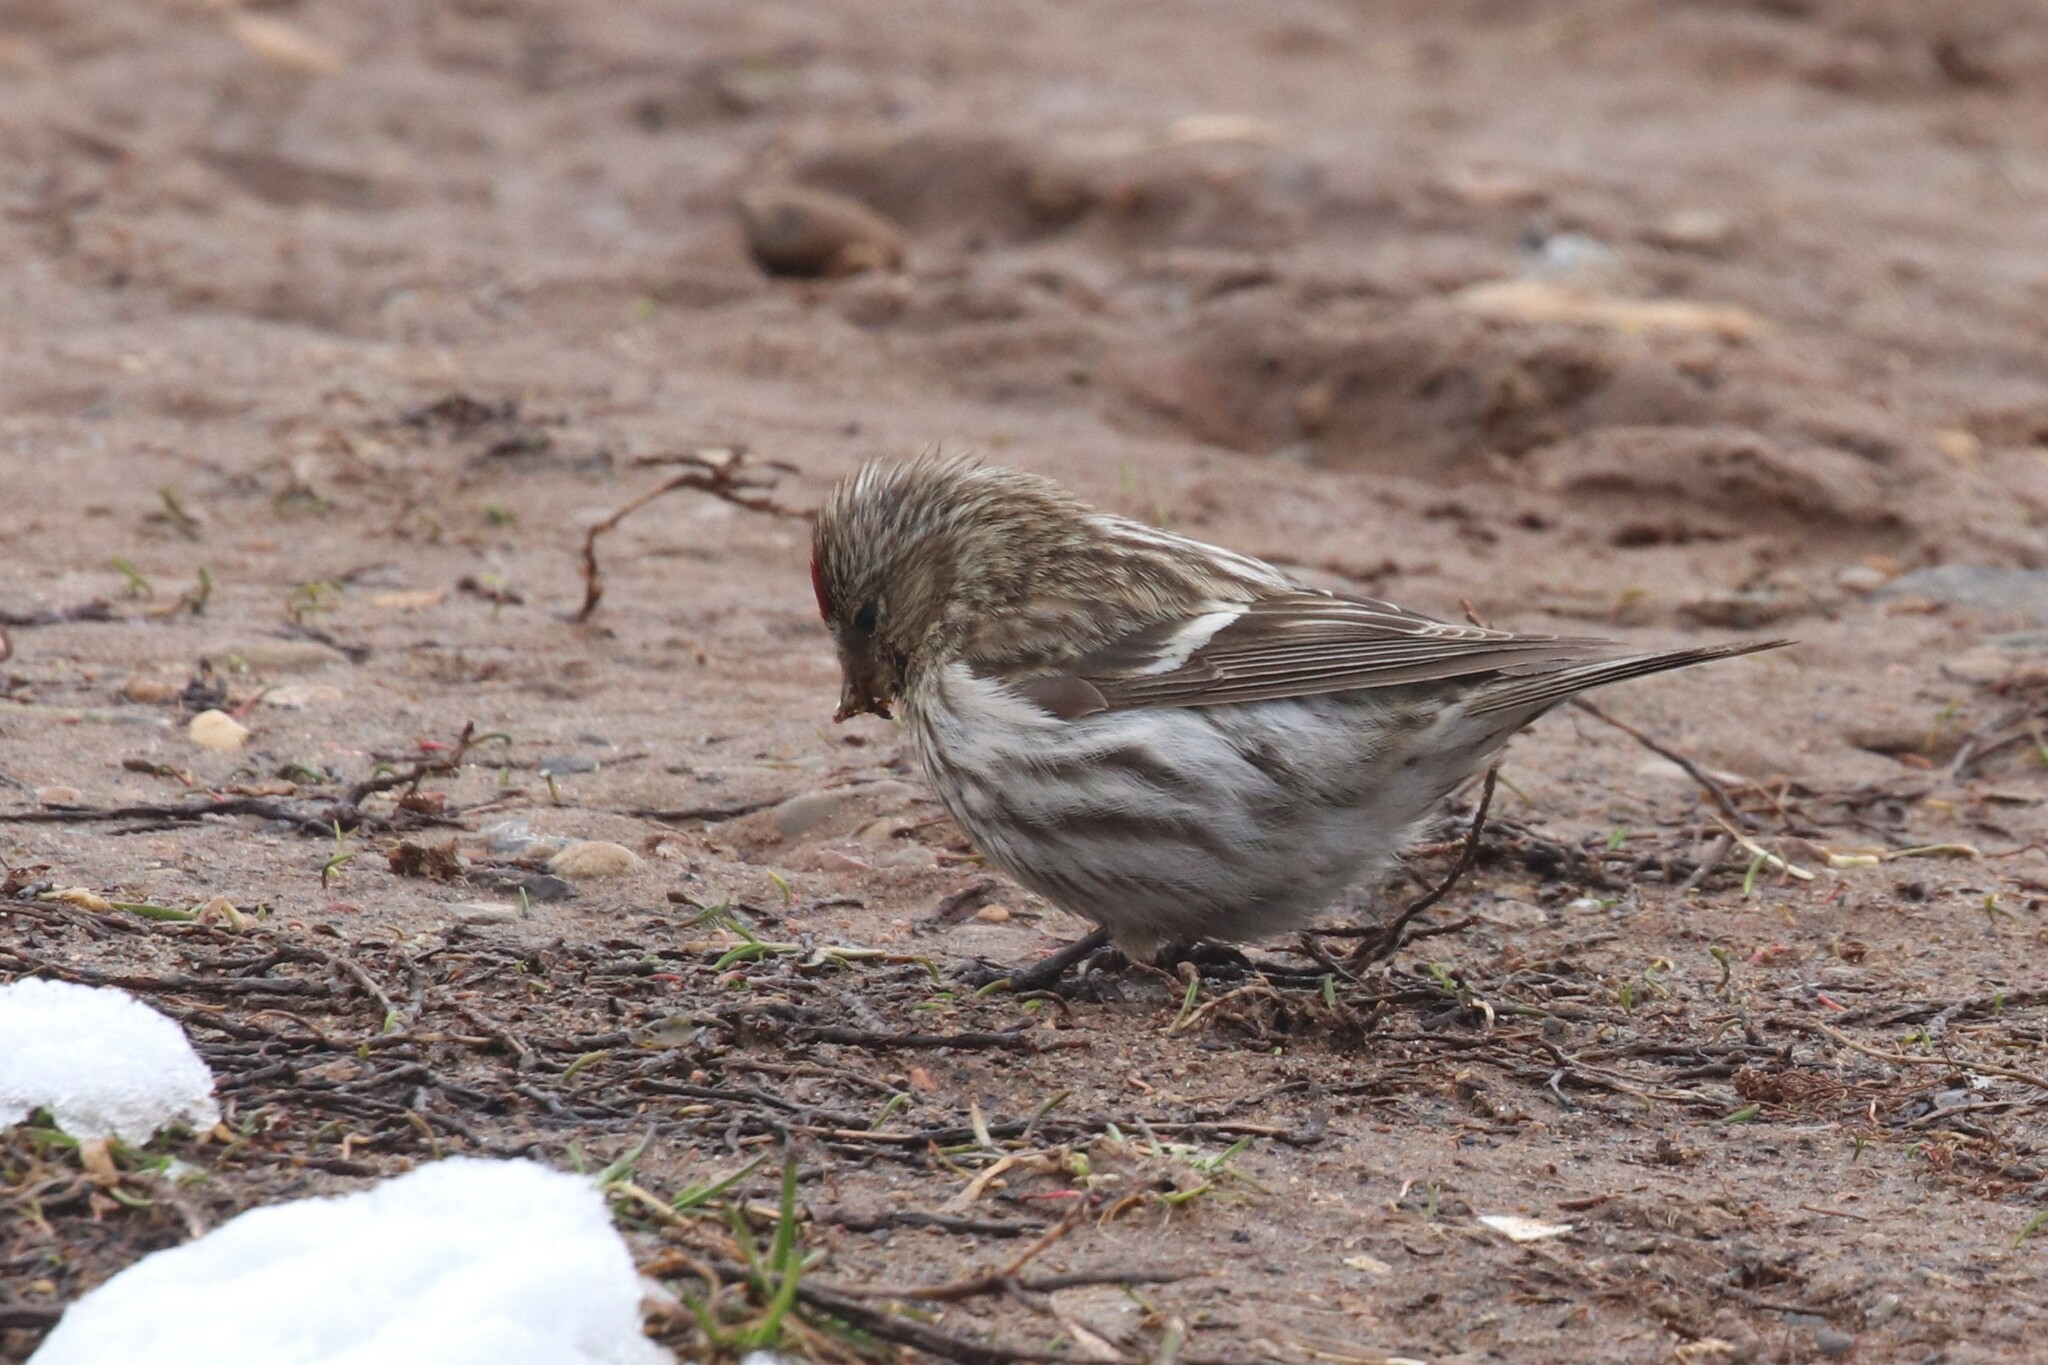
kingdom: Animalia
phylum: Chordata
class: Aves
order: Passeriformes
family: Fringillidae
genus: Acanthis
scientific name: Acanthis flammea
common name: Common redpoll
